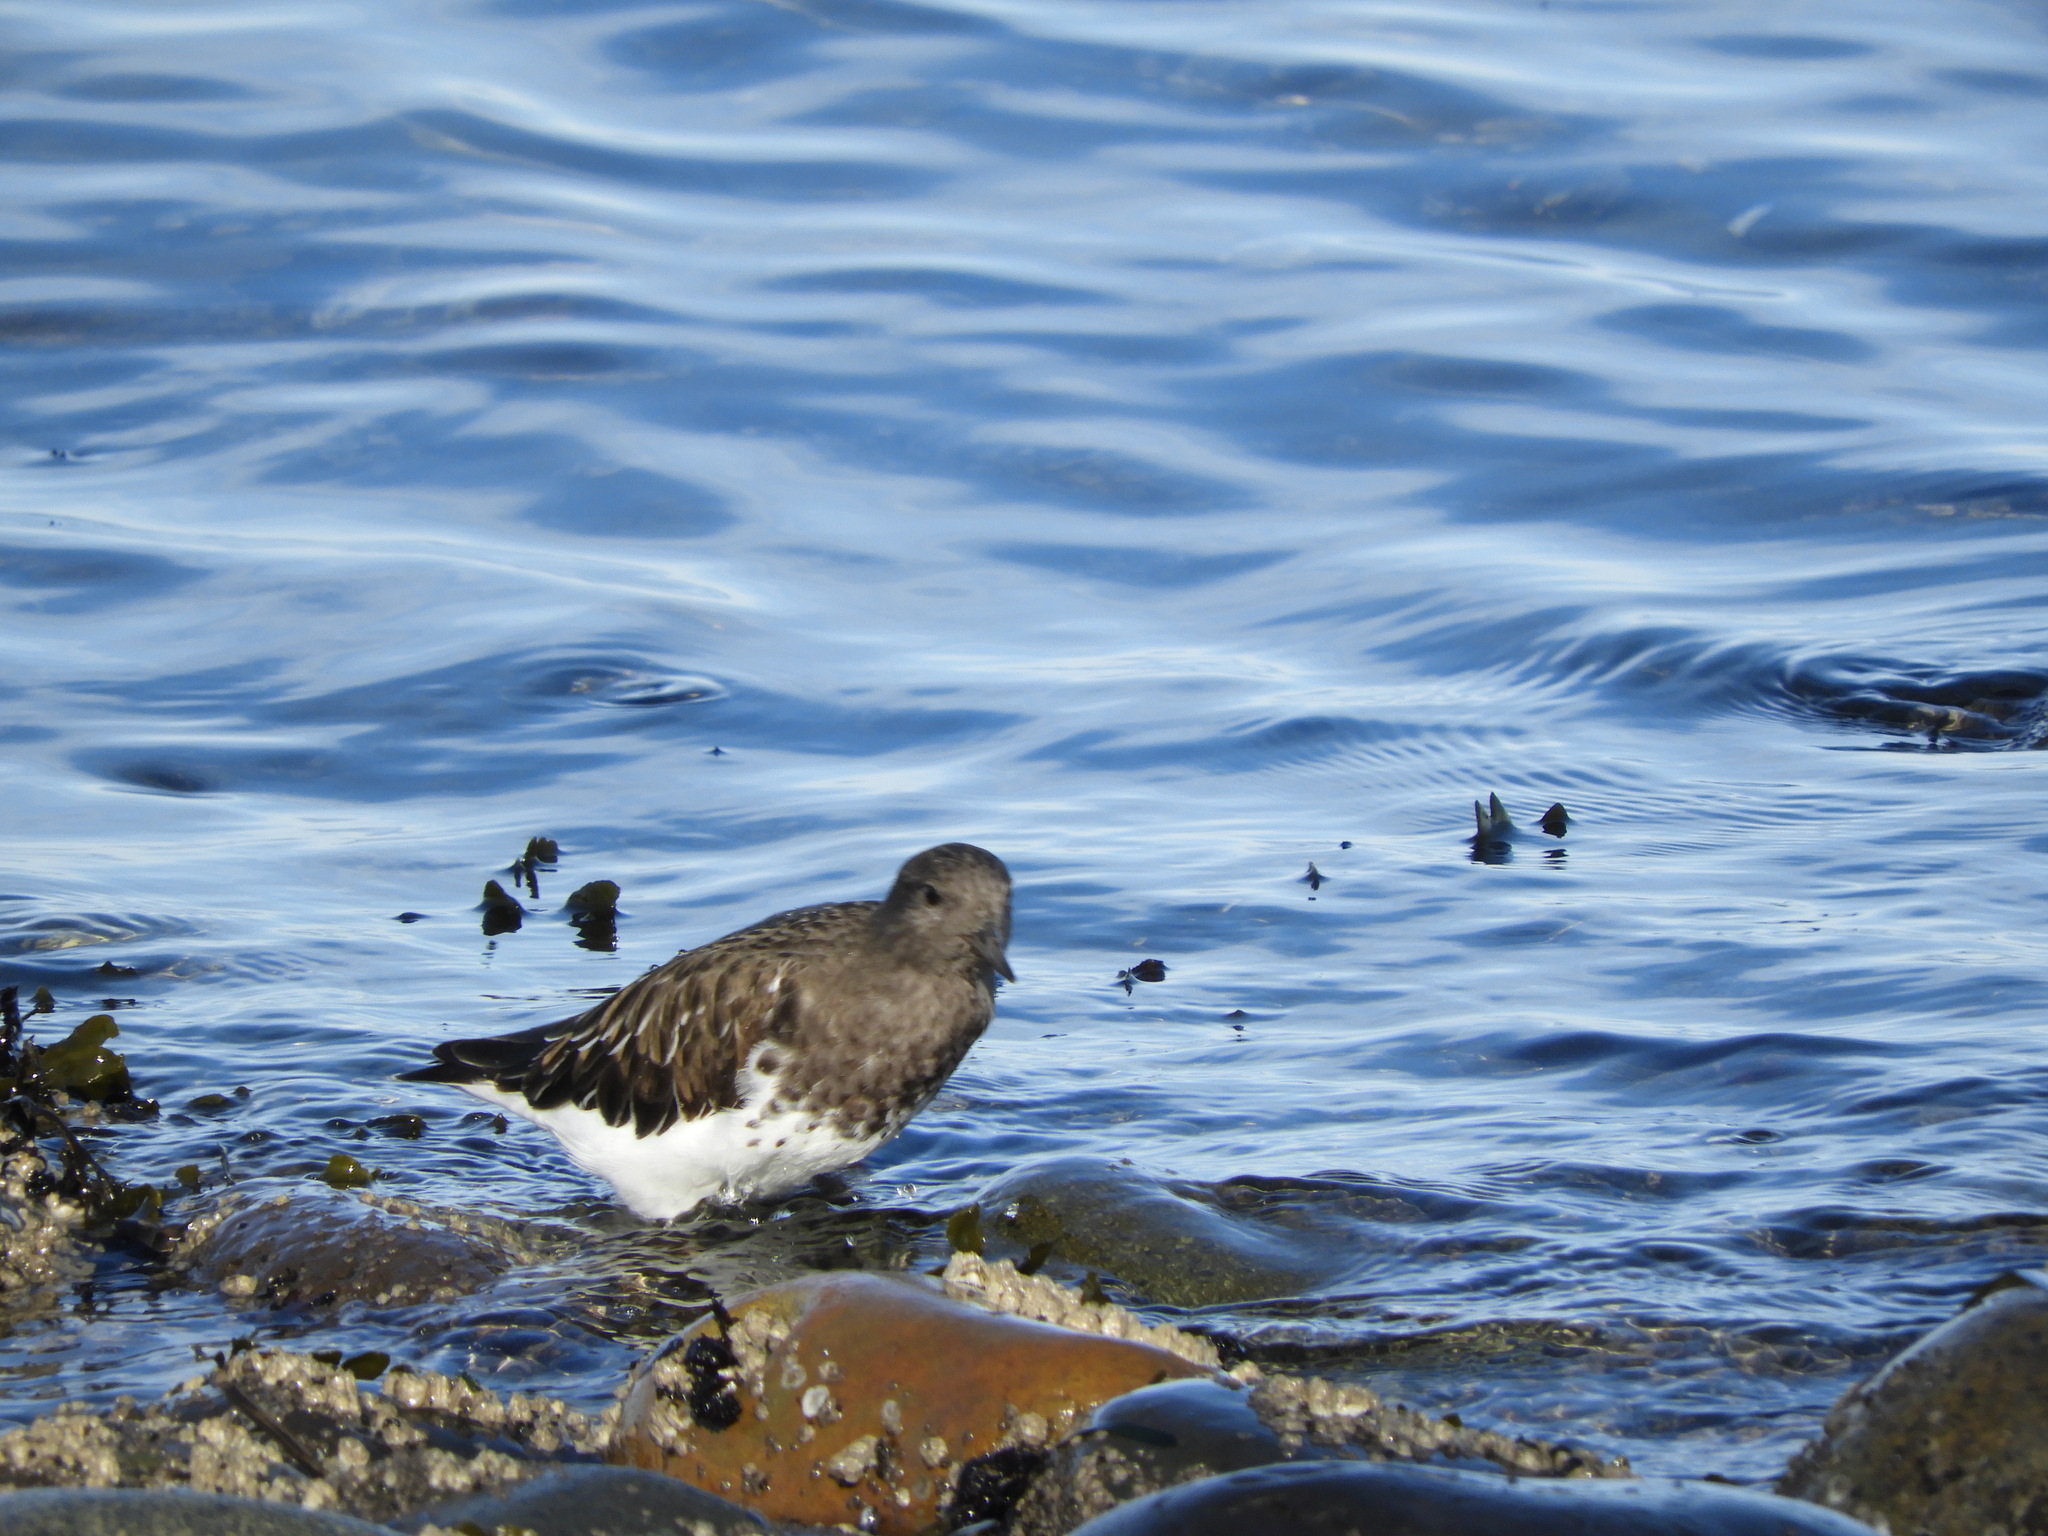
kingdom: Animalia
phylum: Chordata
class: Aves
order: Charadriiformes
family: Scolopacidae
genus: Arenaria
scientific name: Arenaria melanocephala
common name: Black turnstone
